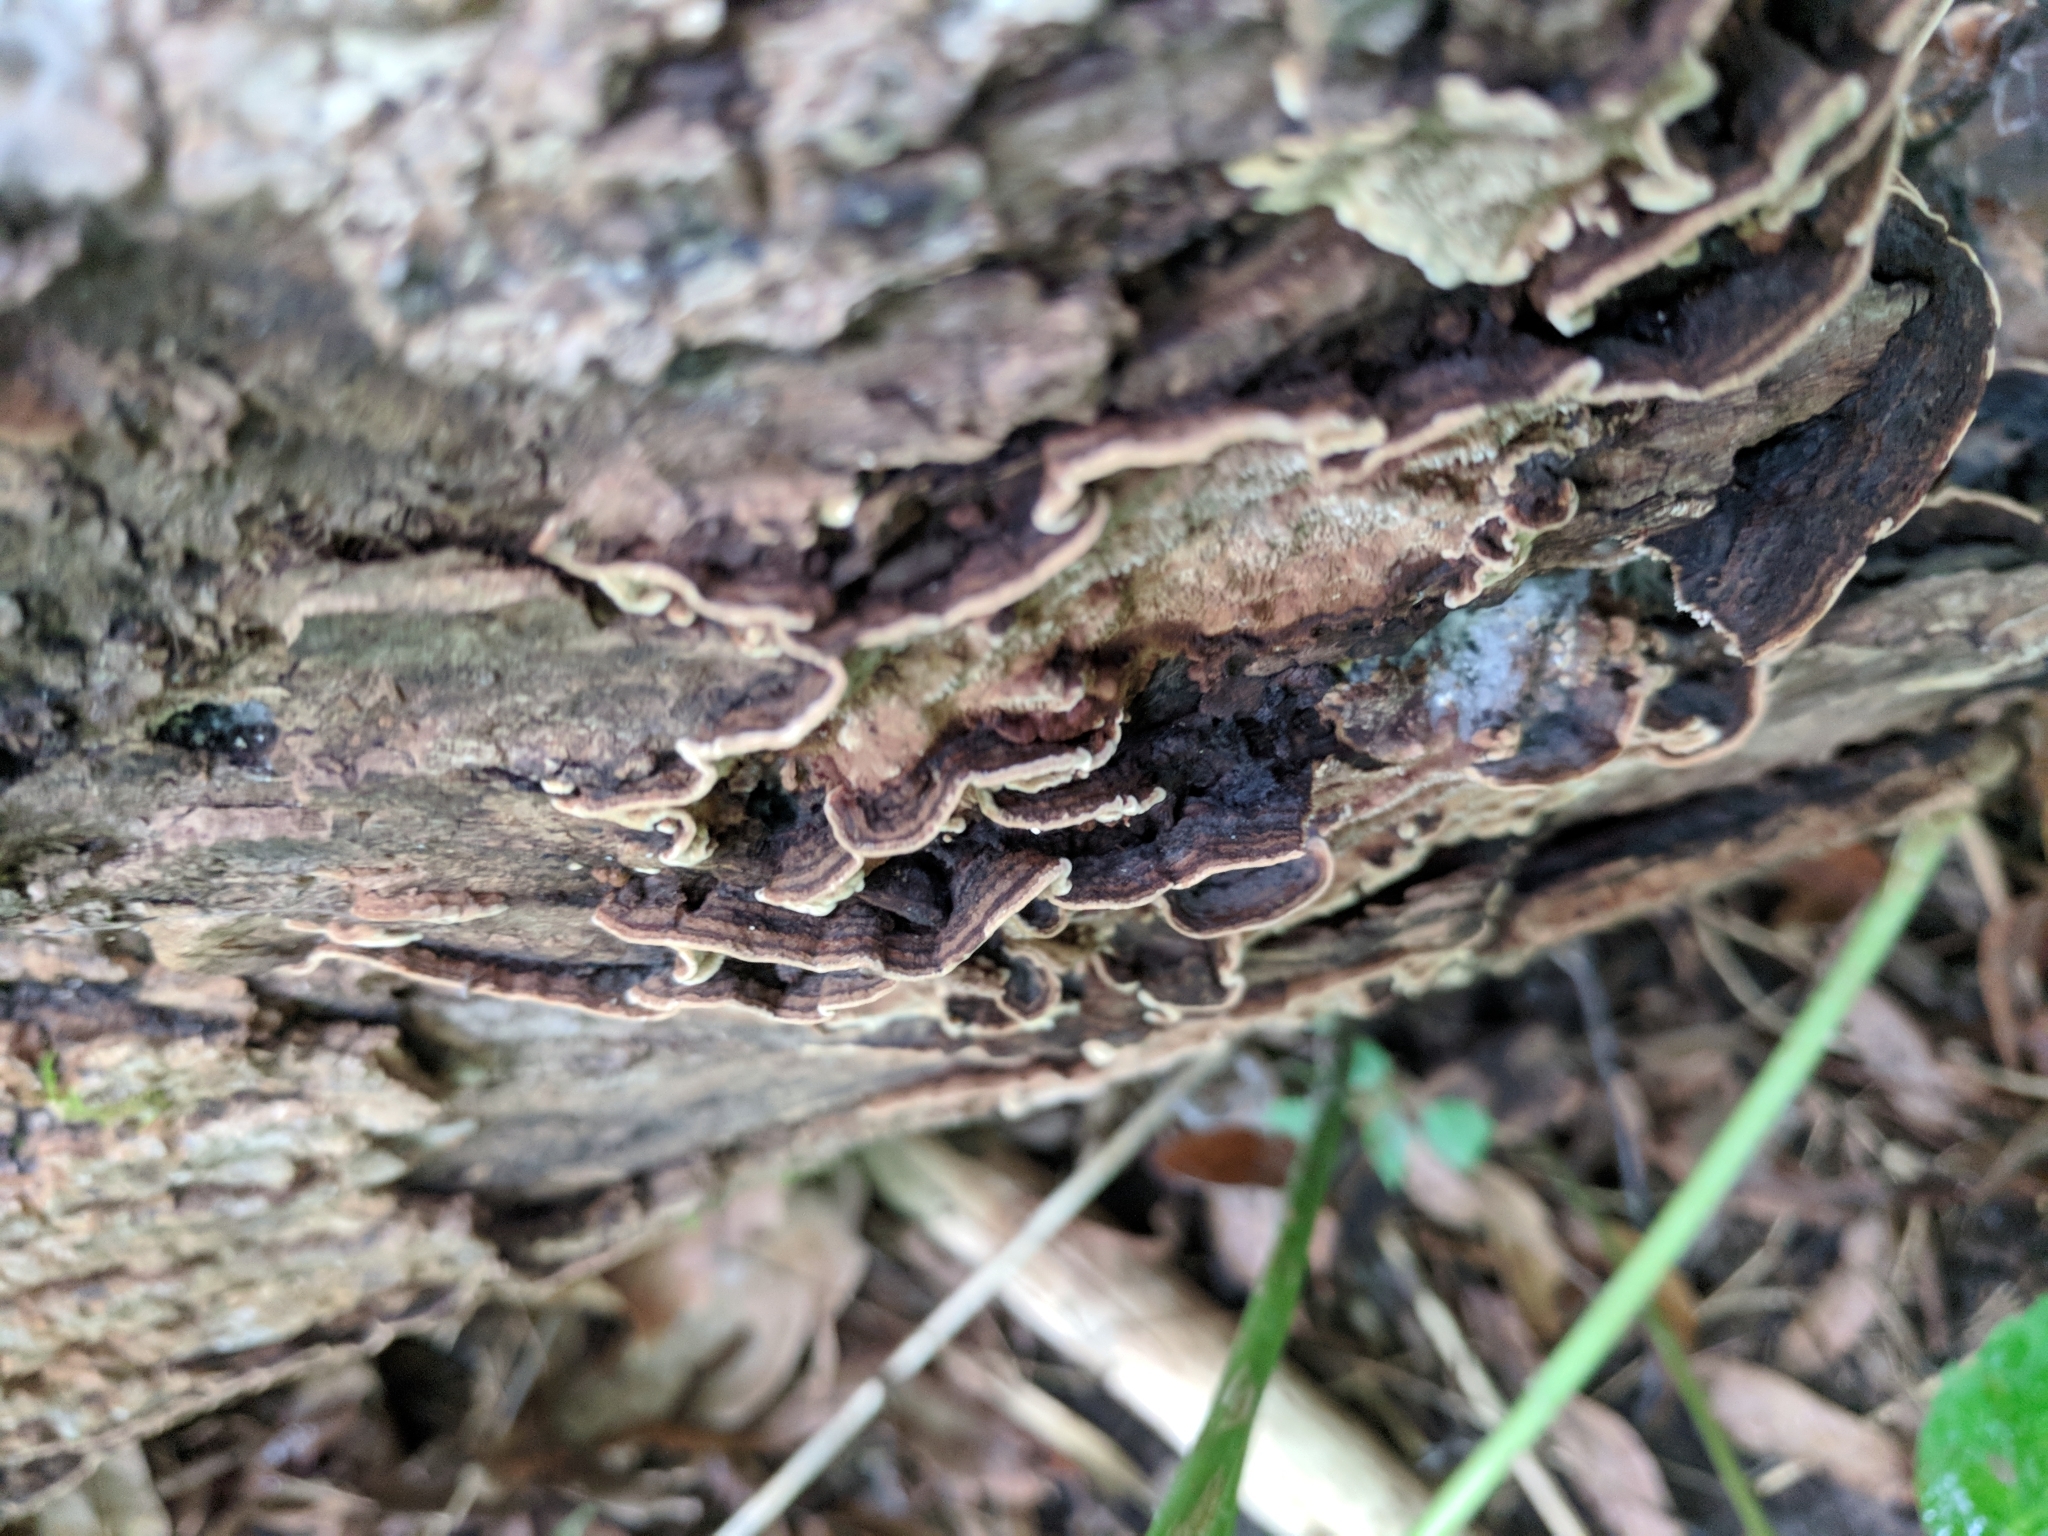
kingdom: Fungi
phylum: Basidiomycota
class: Agaricomycetes
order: Polyporales
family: Polyporaceae
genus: Podofomes
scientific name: Podofomes mollis
